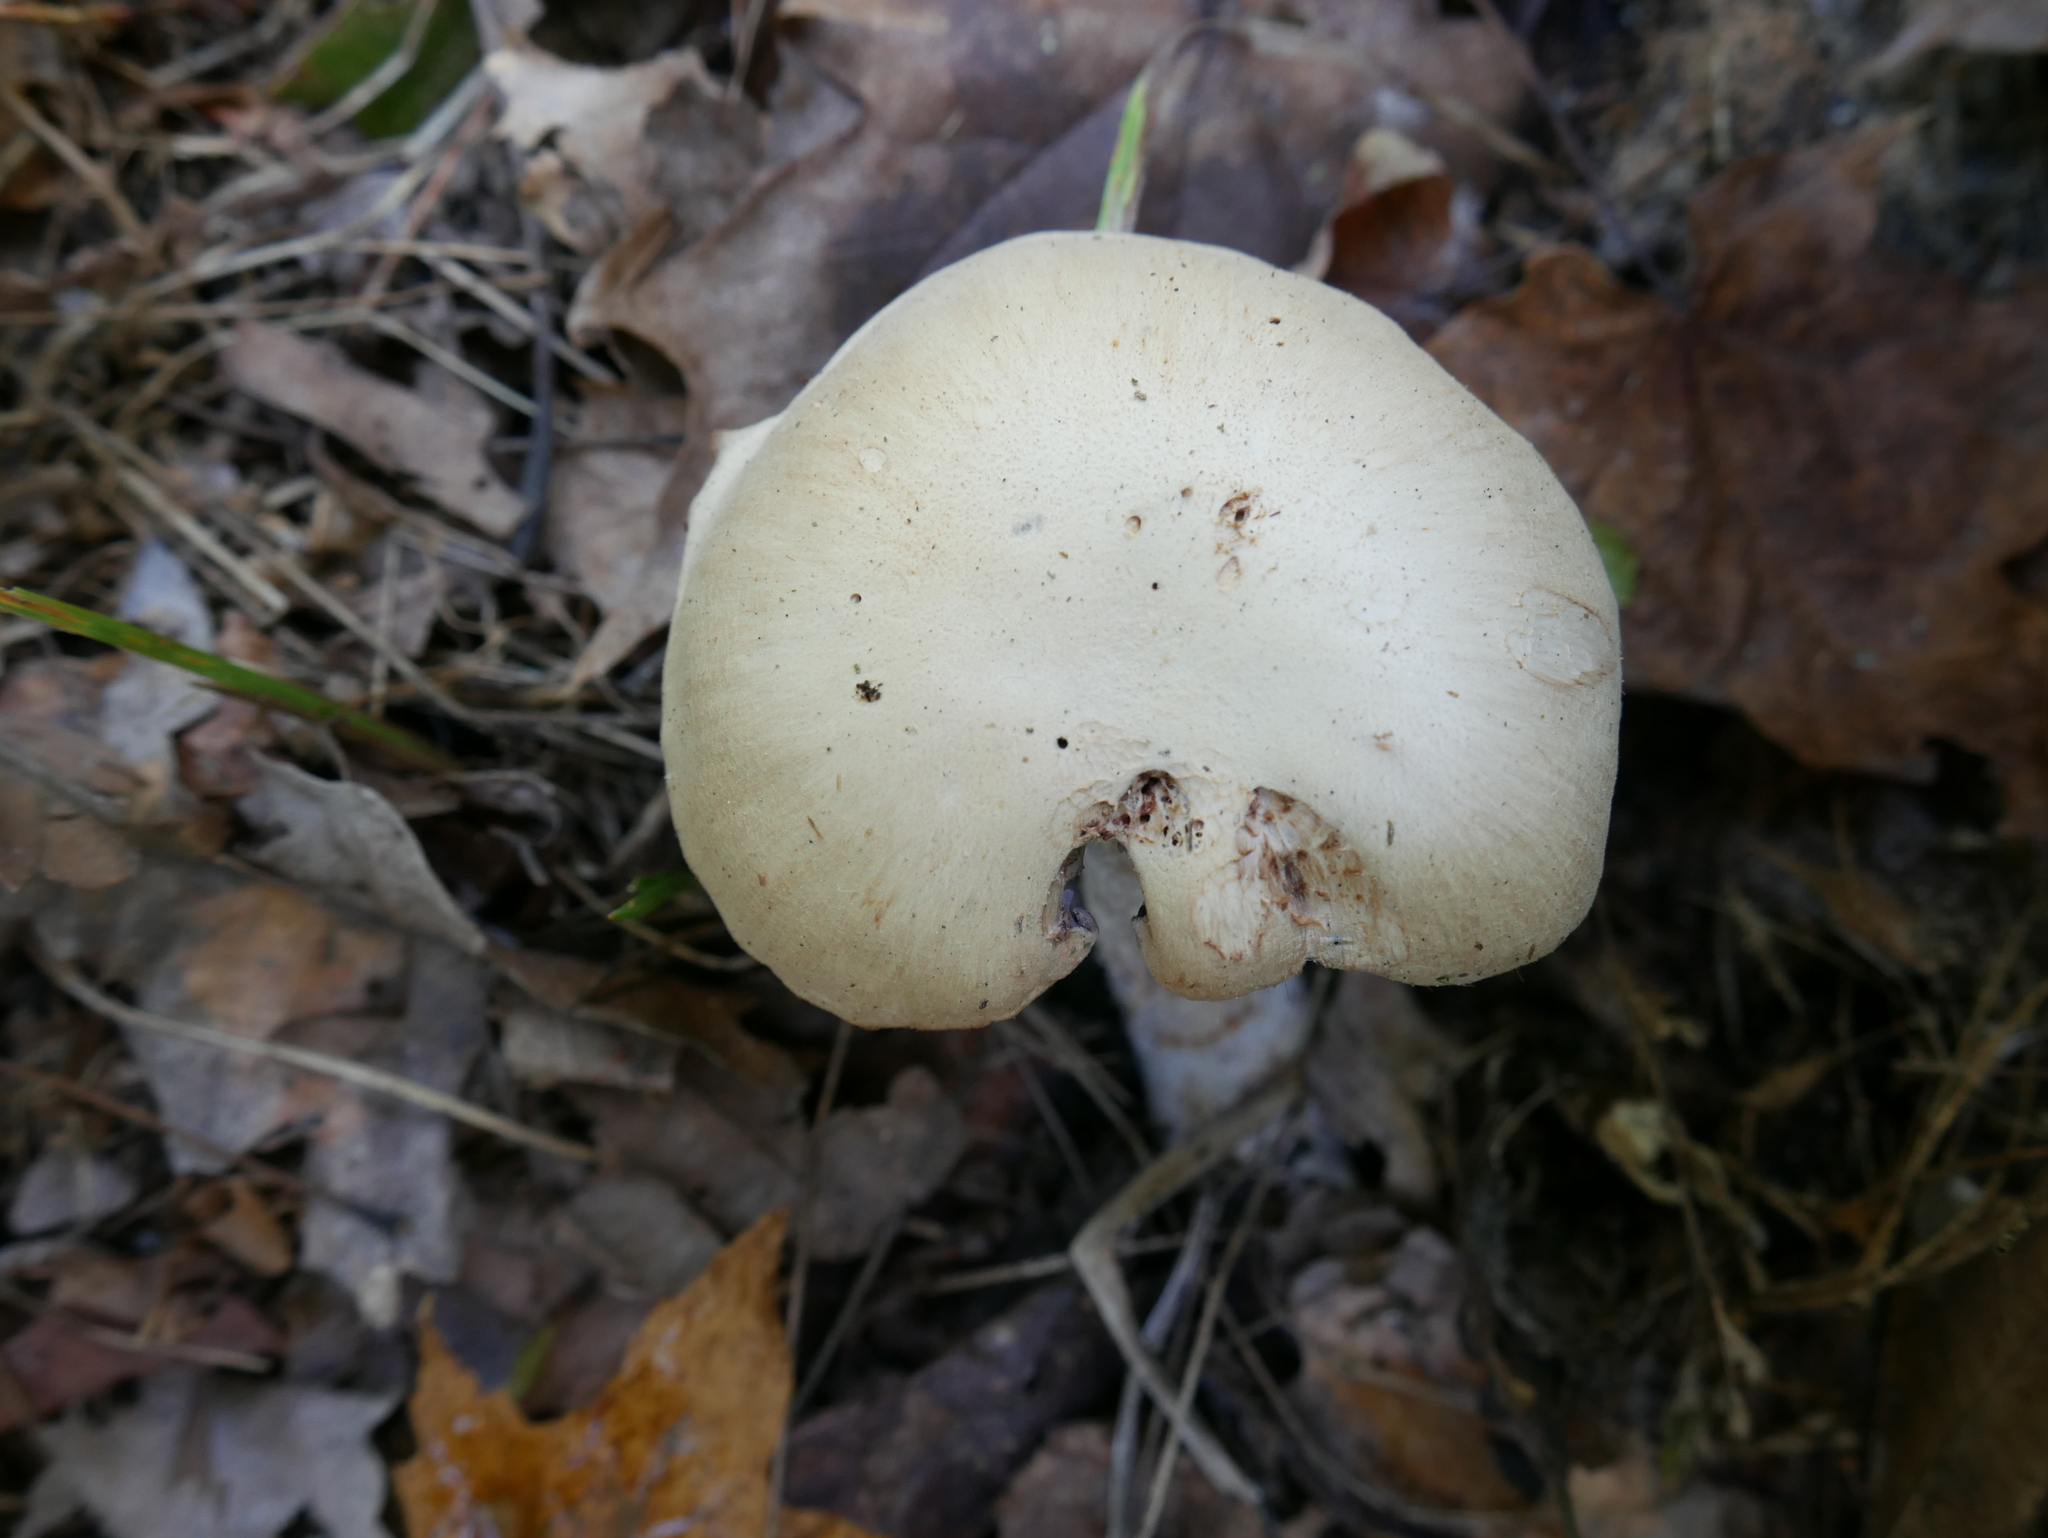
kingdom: Fungi
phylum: Basidiomycota
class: Agaricomycetes
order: Agaricales
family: Hydnangiaceae
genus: Laccaria
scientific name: Laccaria ochropurpurea
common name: Purple laccaria
